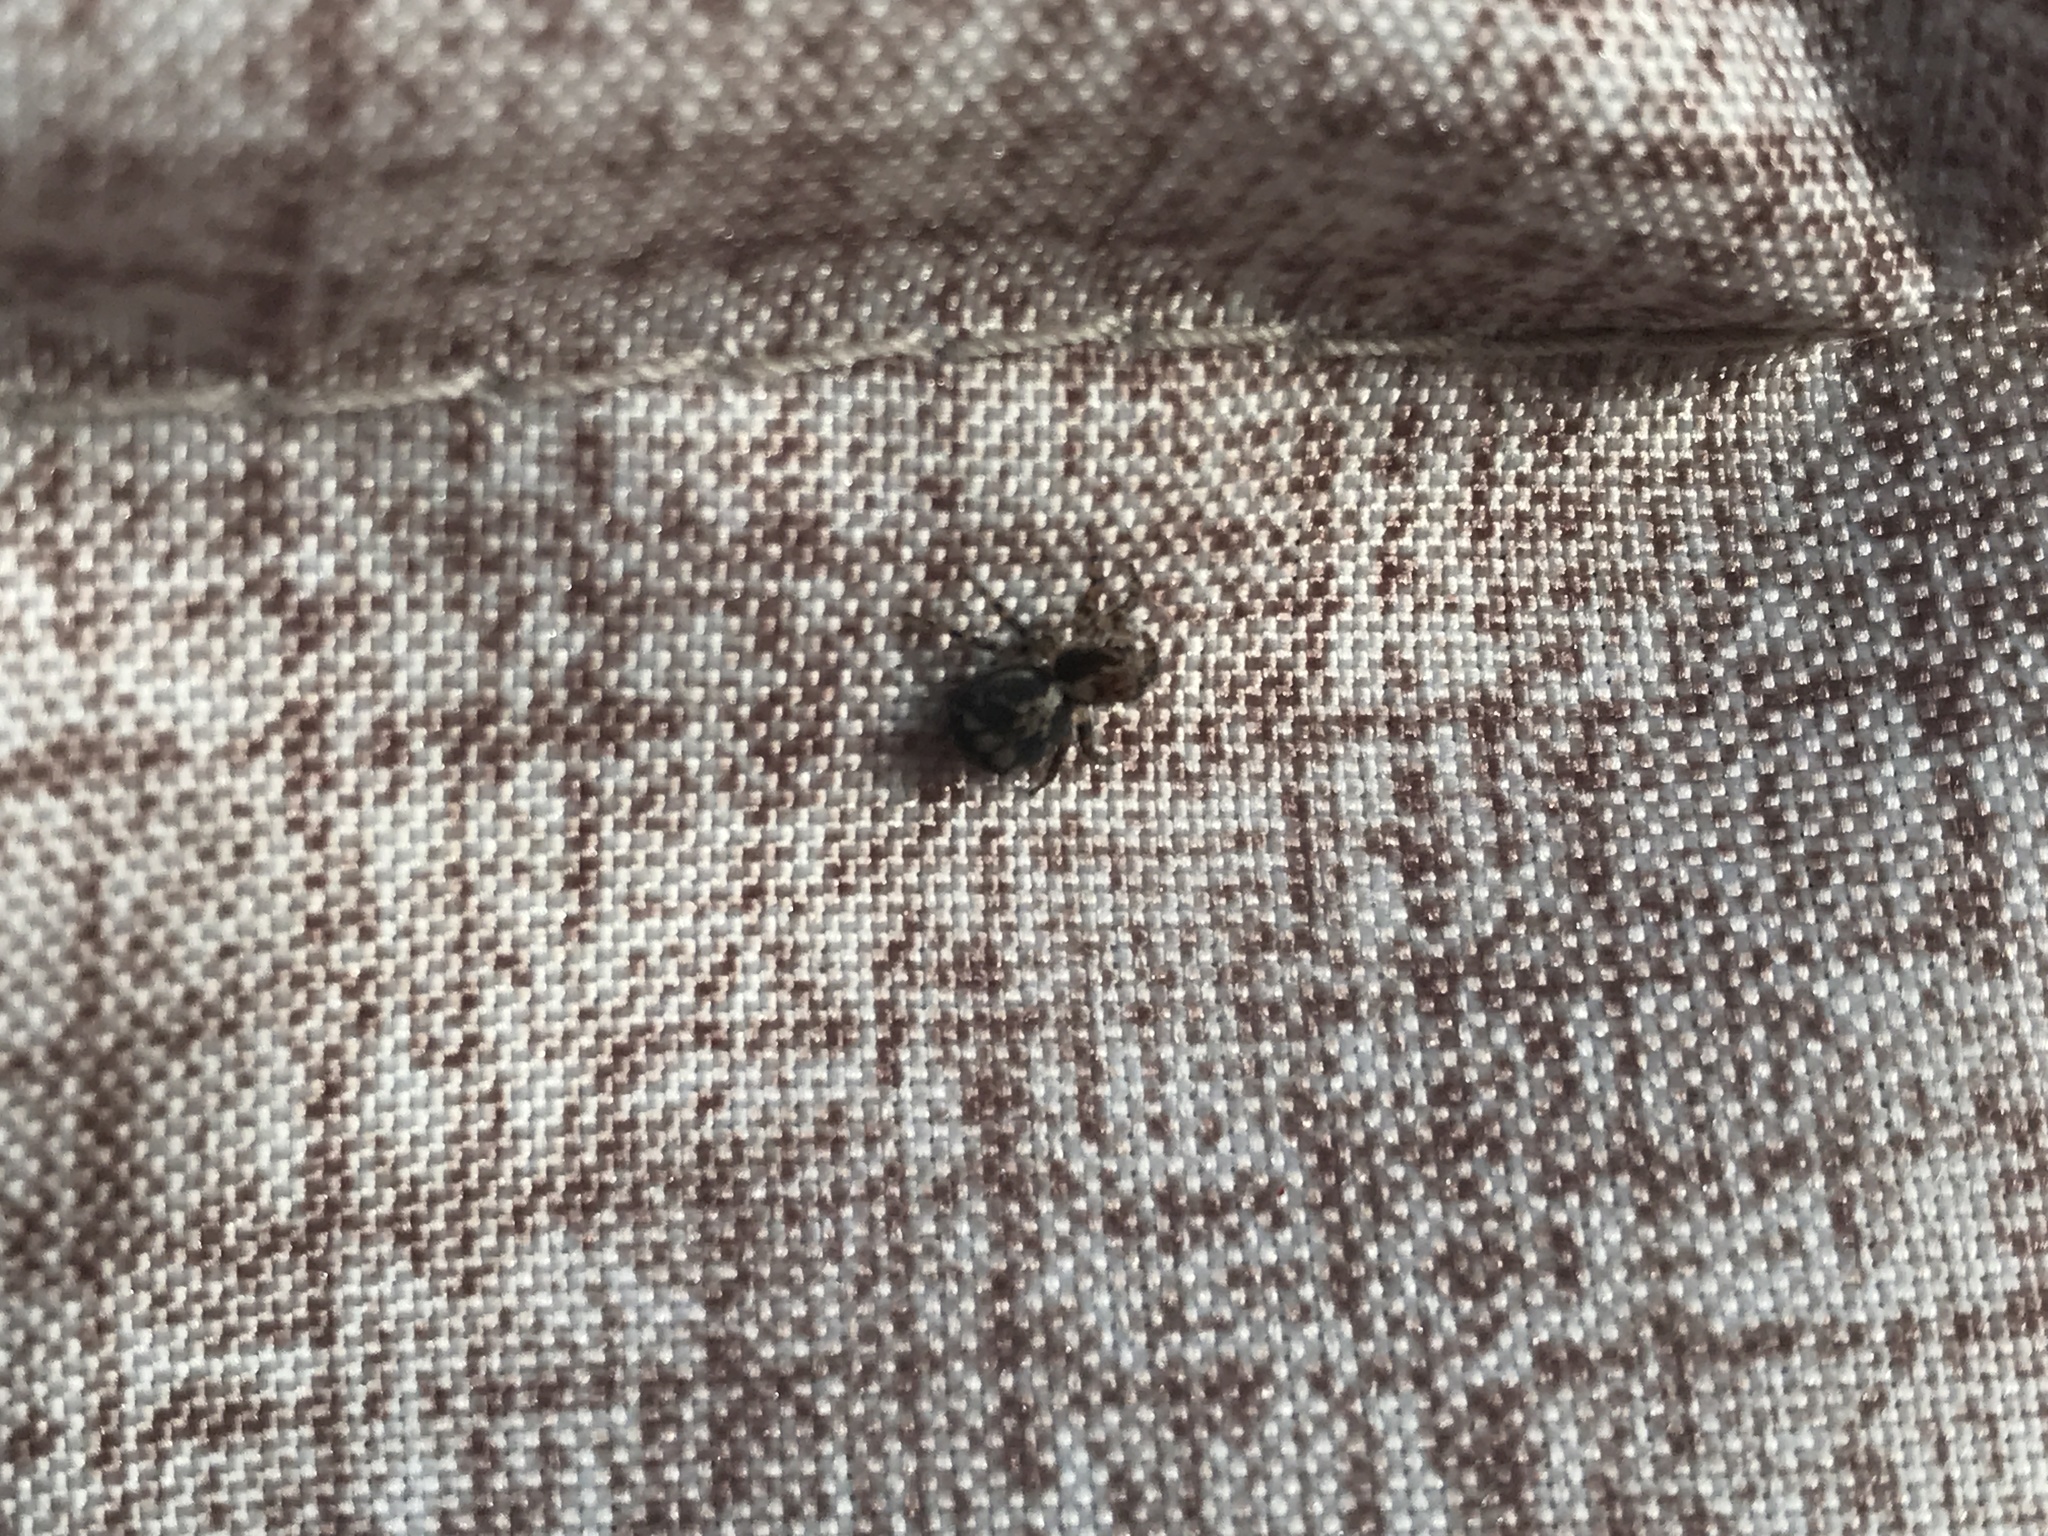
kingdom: Animalia
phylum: Arthropoda
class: Arachnida
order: Araneae
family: Salticidae
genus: Naphrys
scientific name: Naphrys pulex
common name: Flea jumping spider
